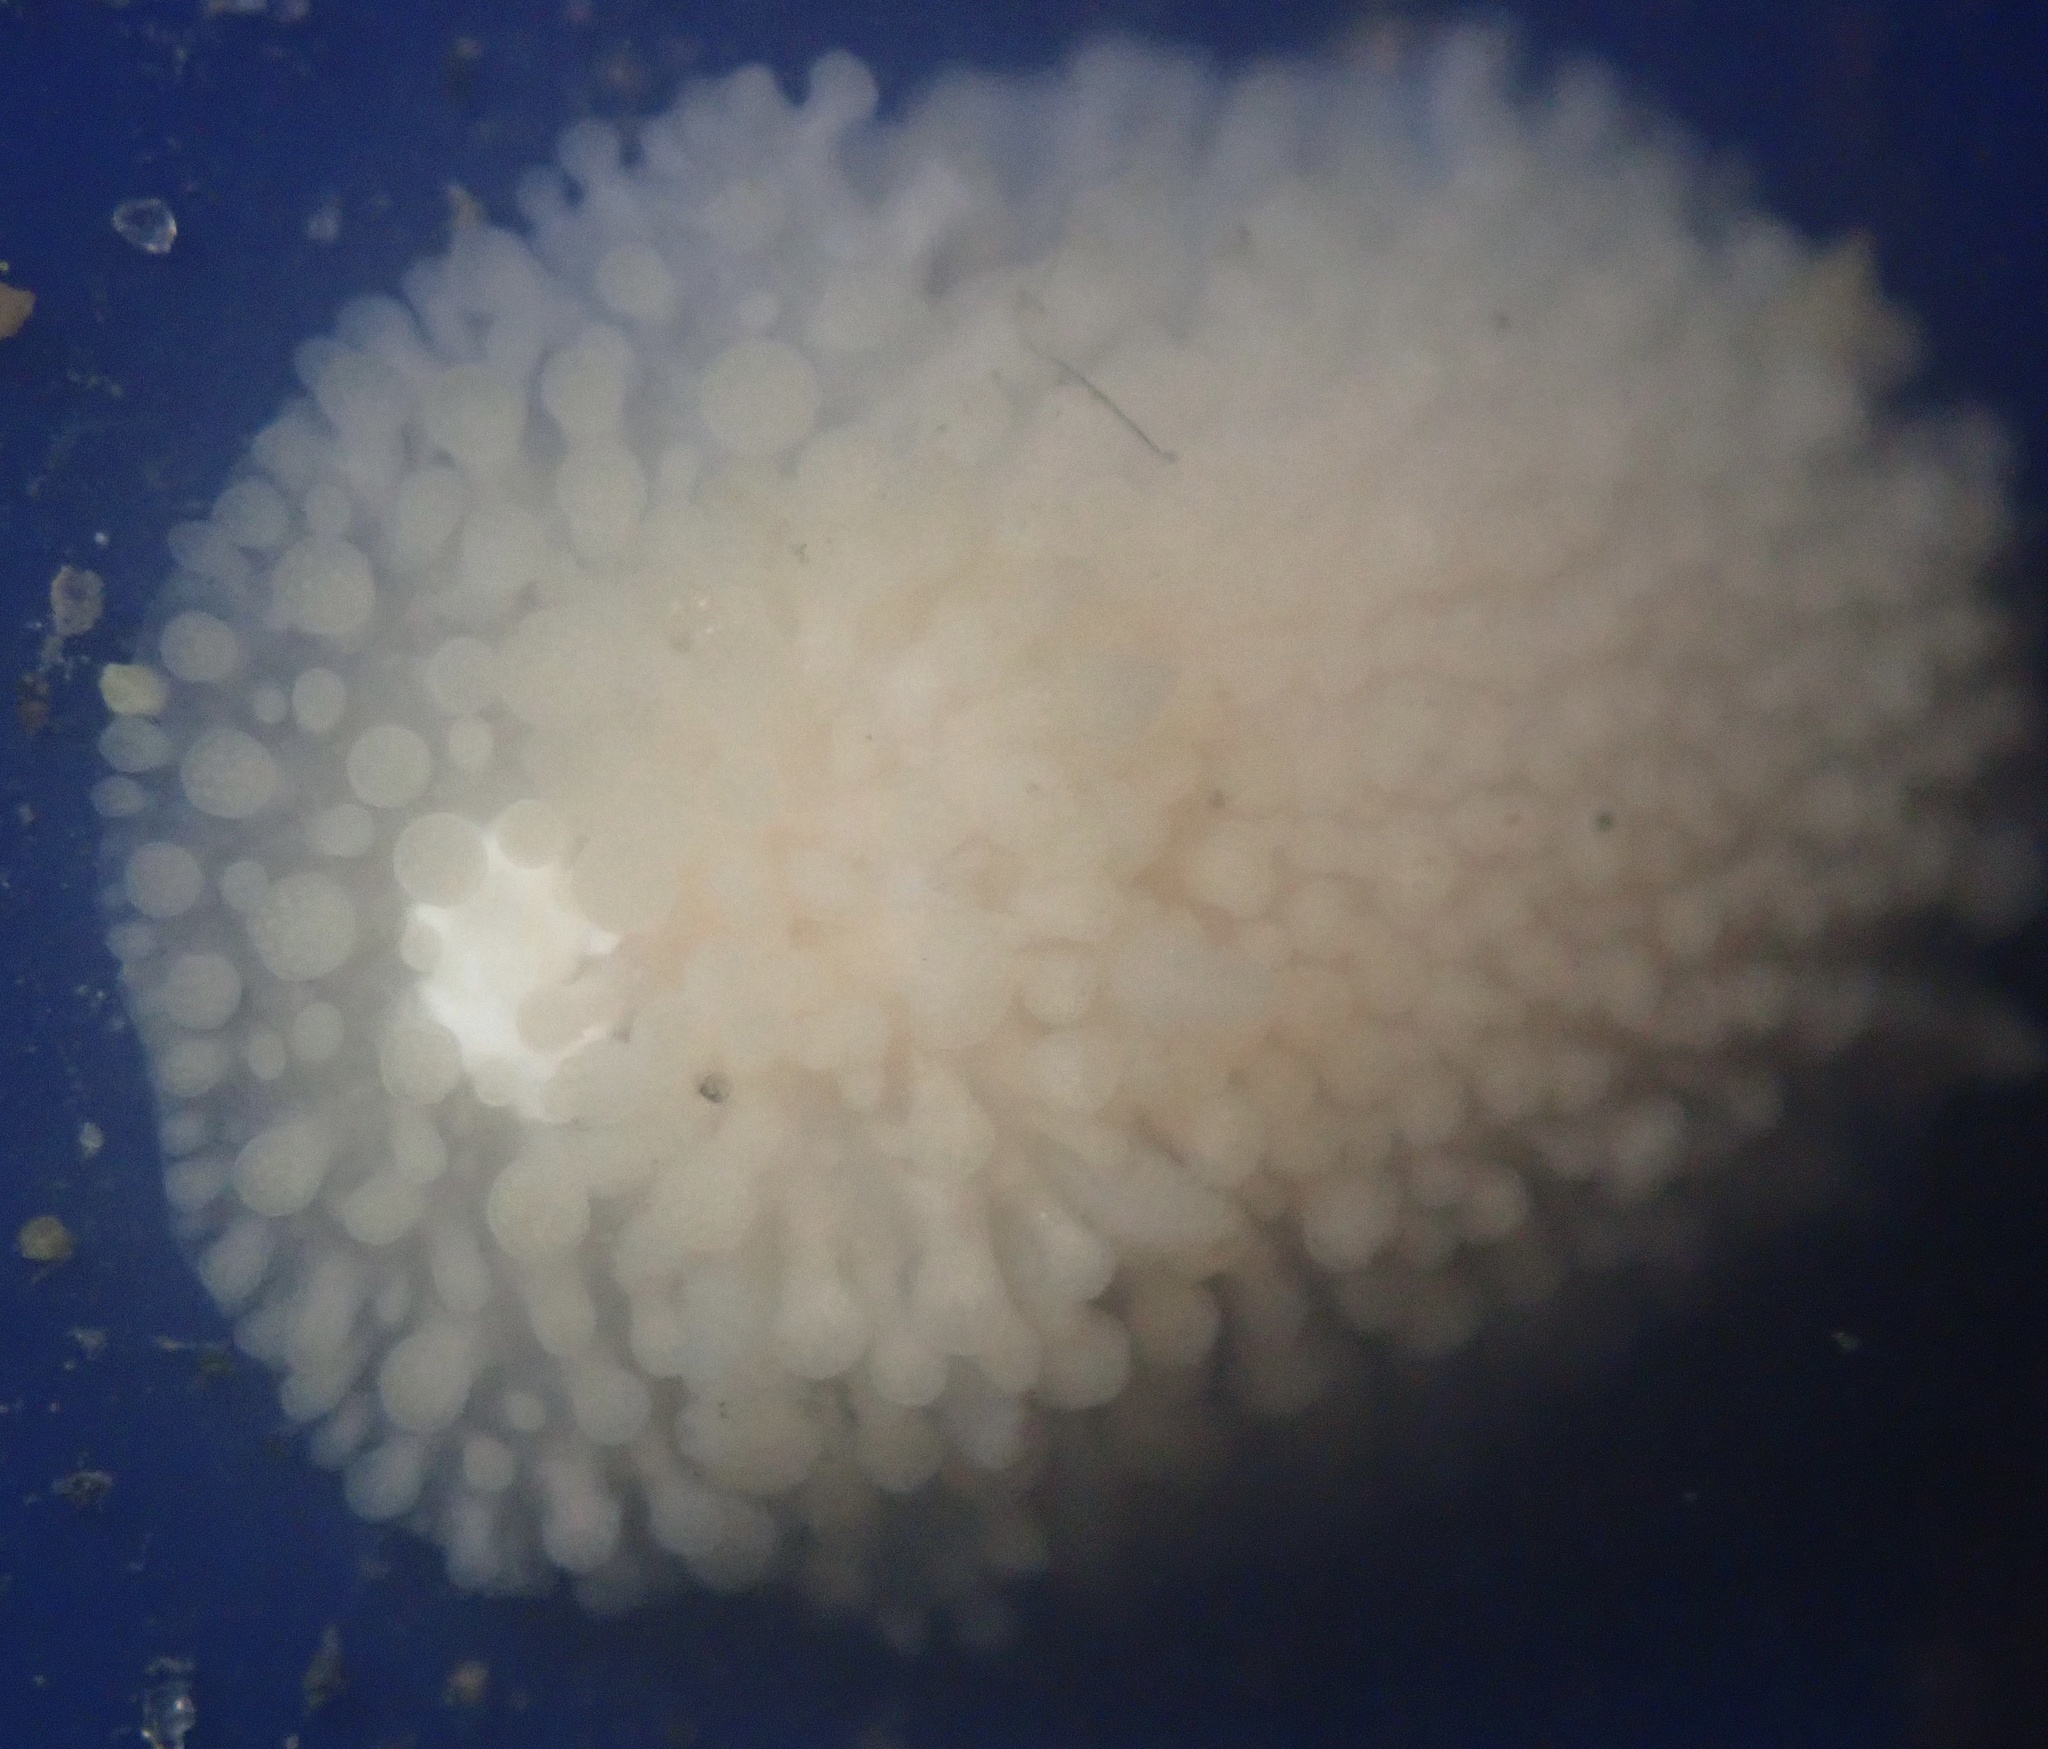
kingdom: Animalia
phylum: Mollusca
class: Gastropoda
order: Nudibranchia
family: Onchidorididae
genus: Atalodoris
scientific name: Atalodoris jannae
